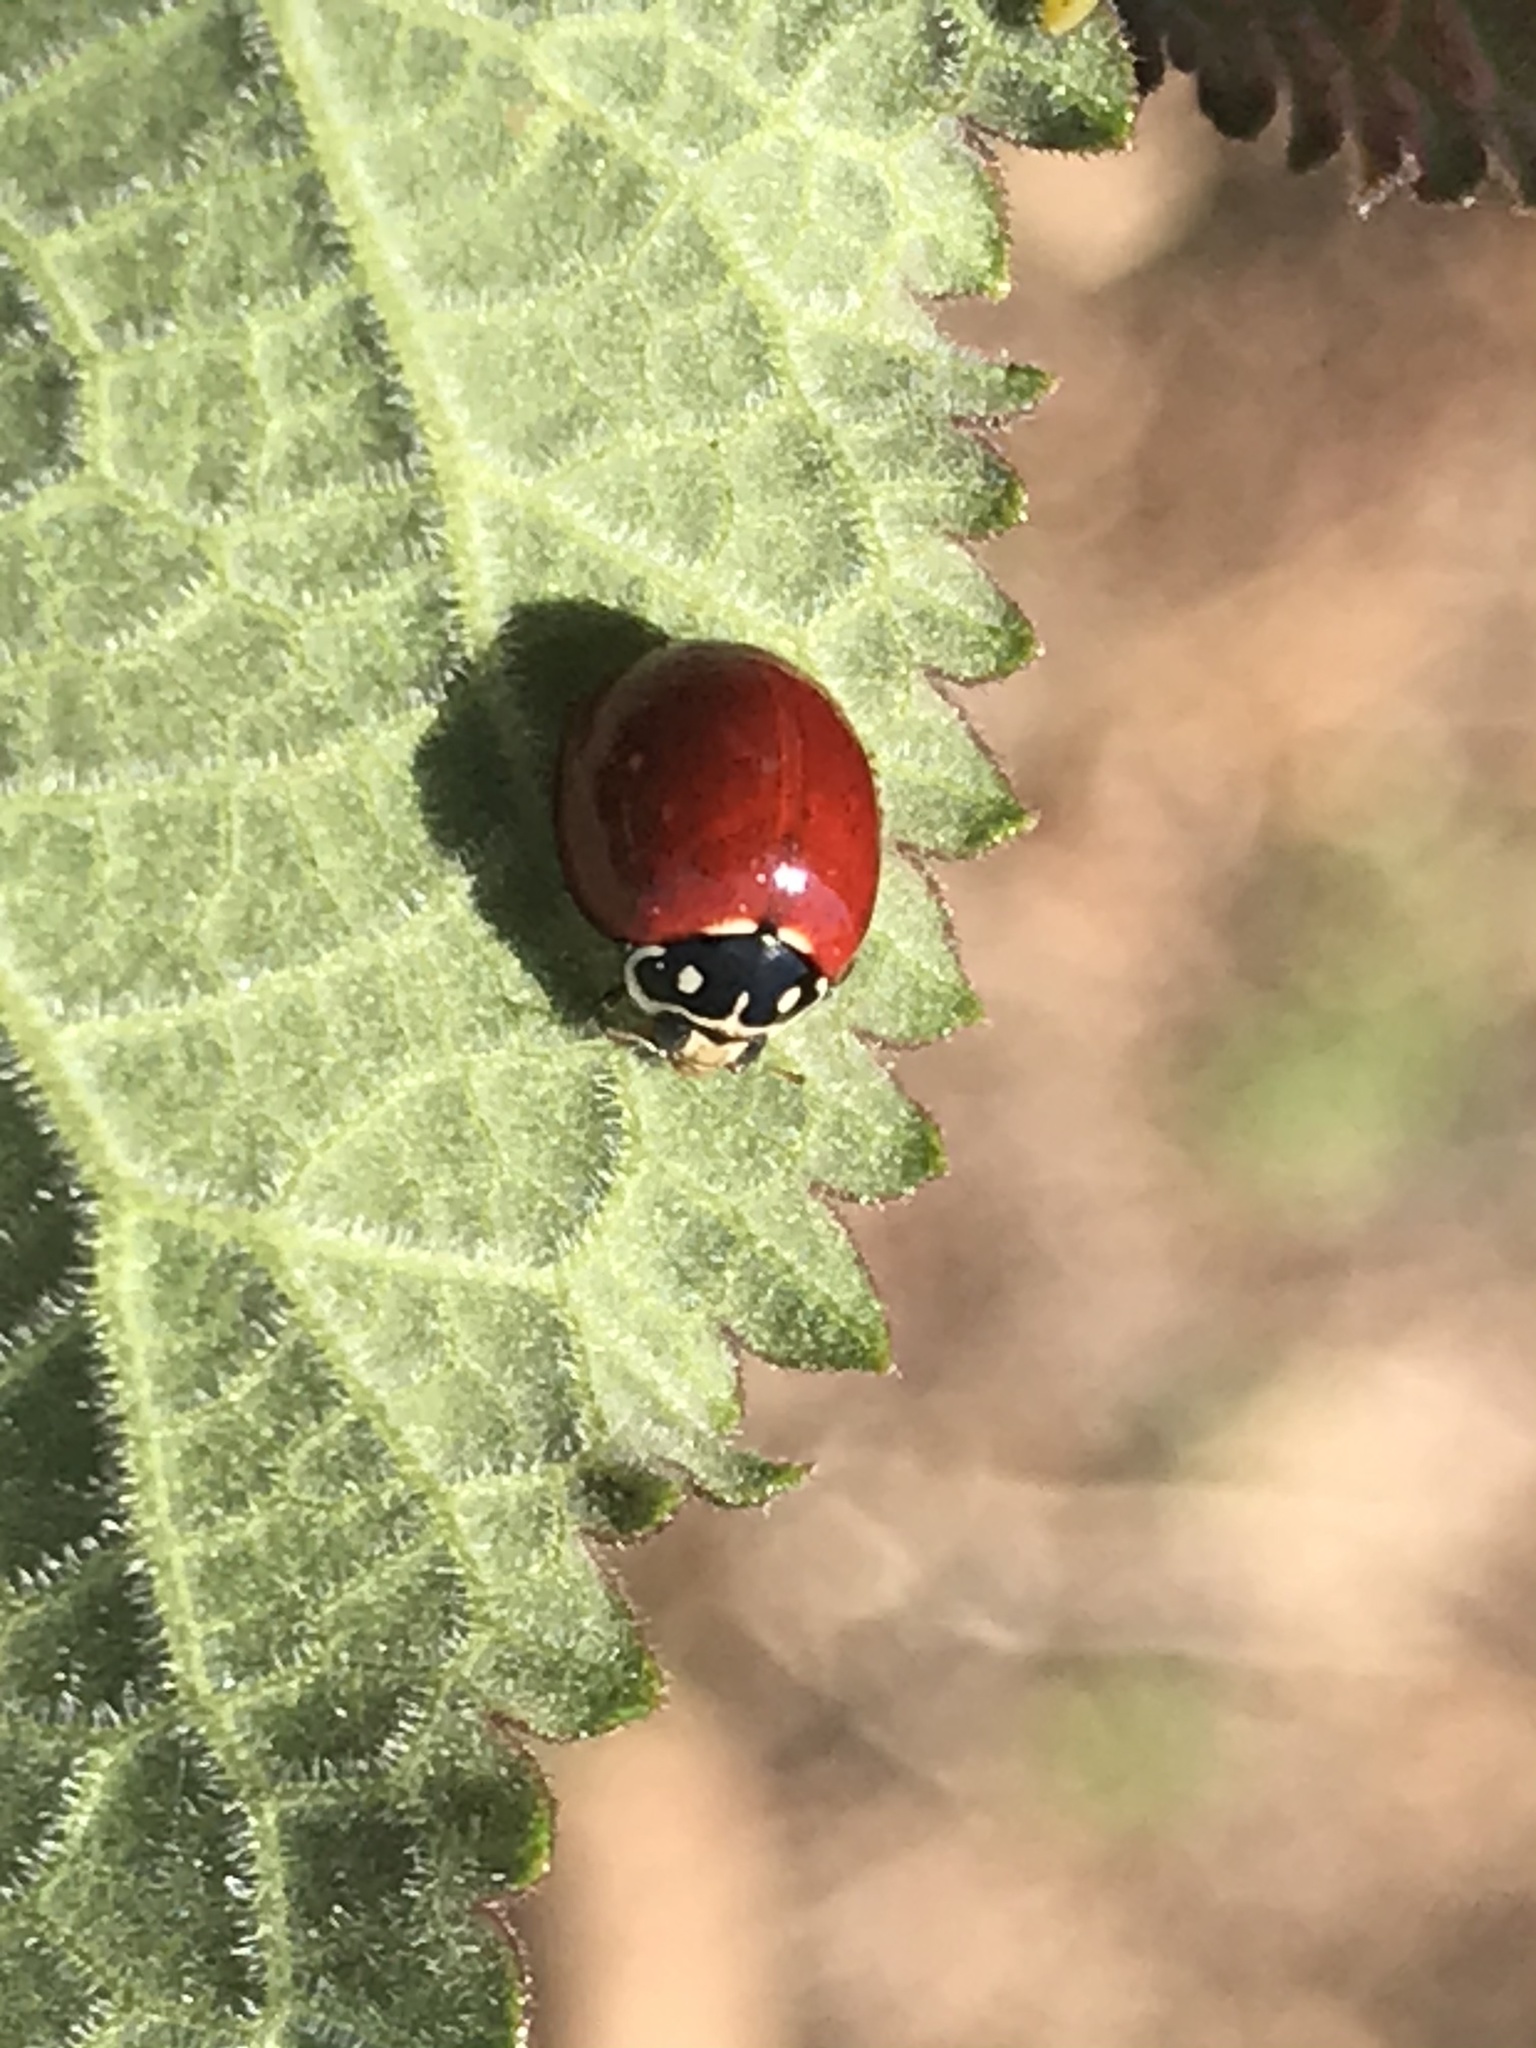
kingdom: Animalia
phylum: Arthropoda
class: Insecta
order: Coleoptera
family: Coccinellidae
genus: Cycloneda
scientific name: Cycloneda sanguinea
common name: Ladybird beetle
